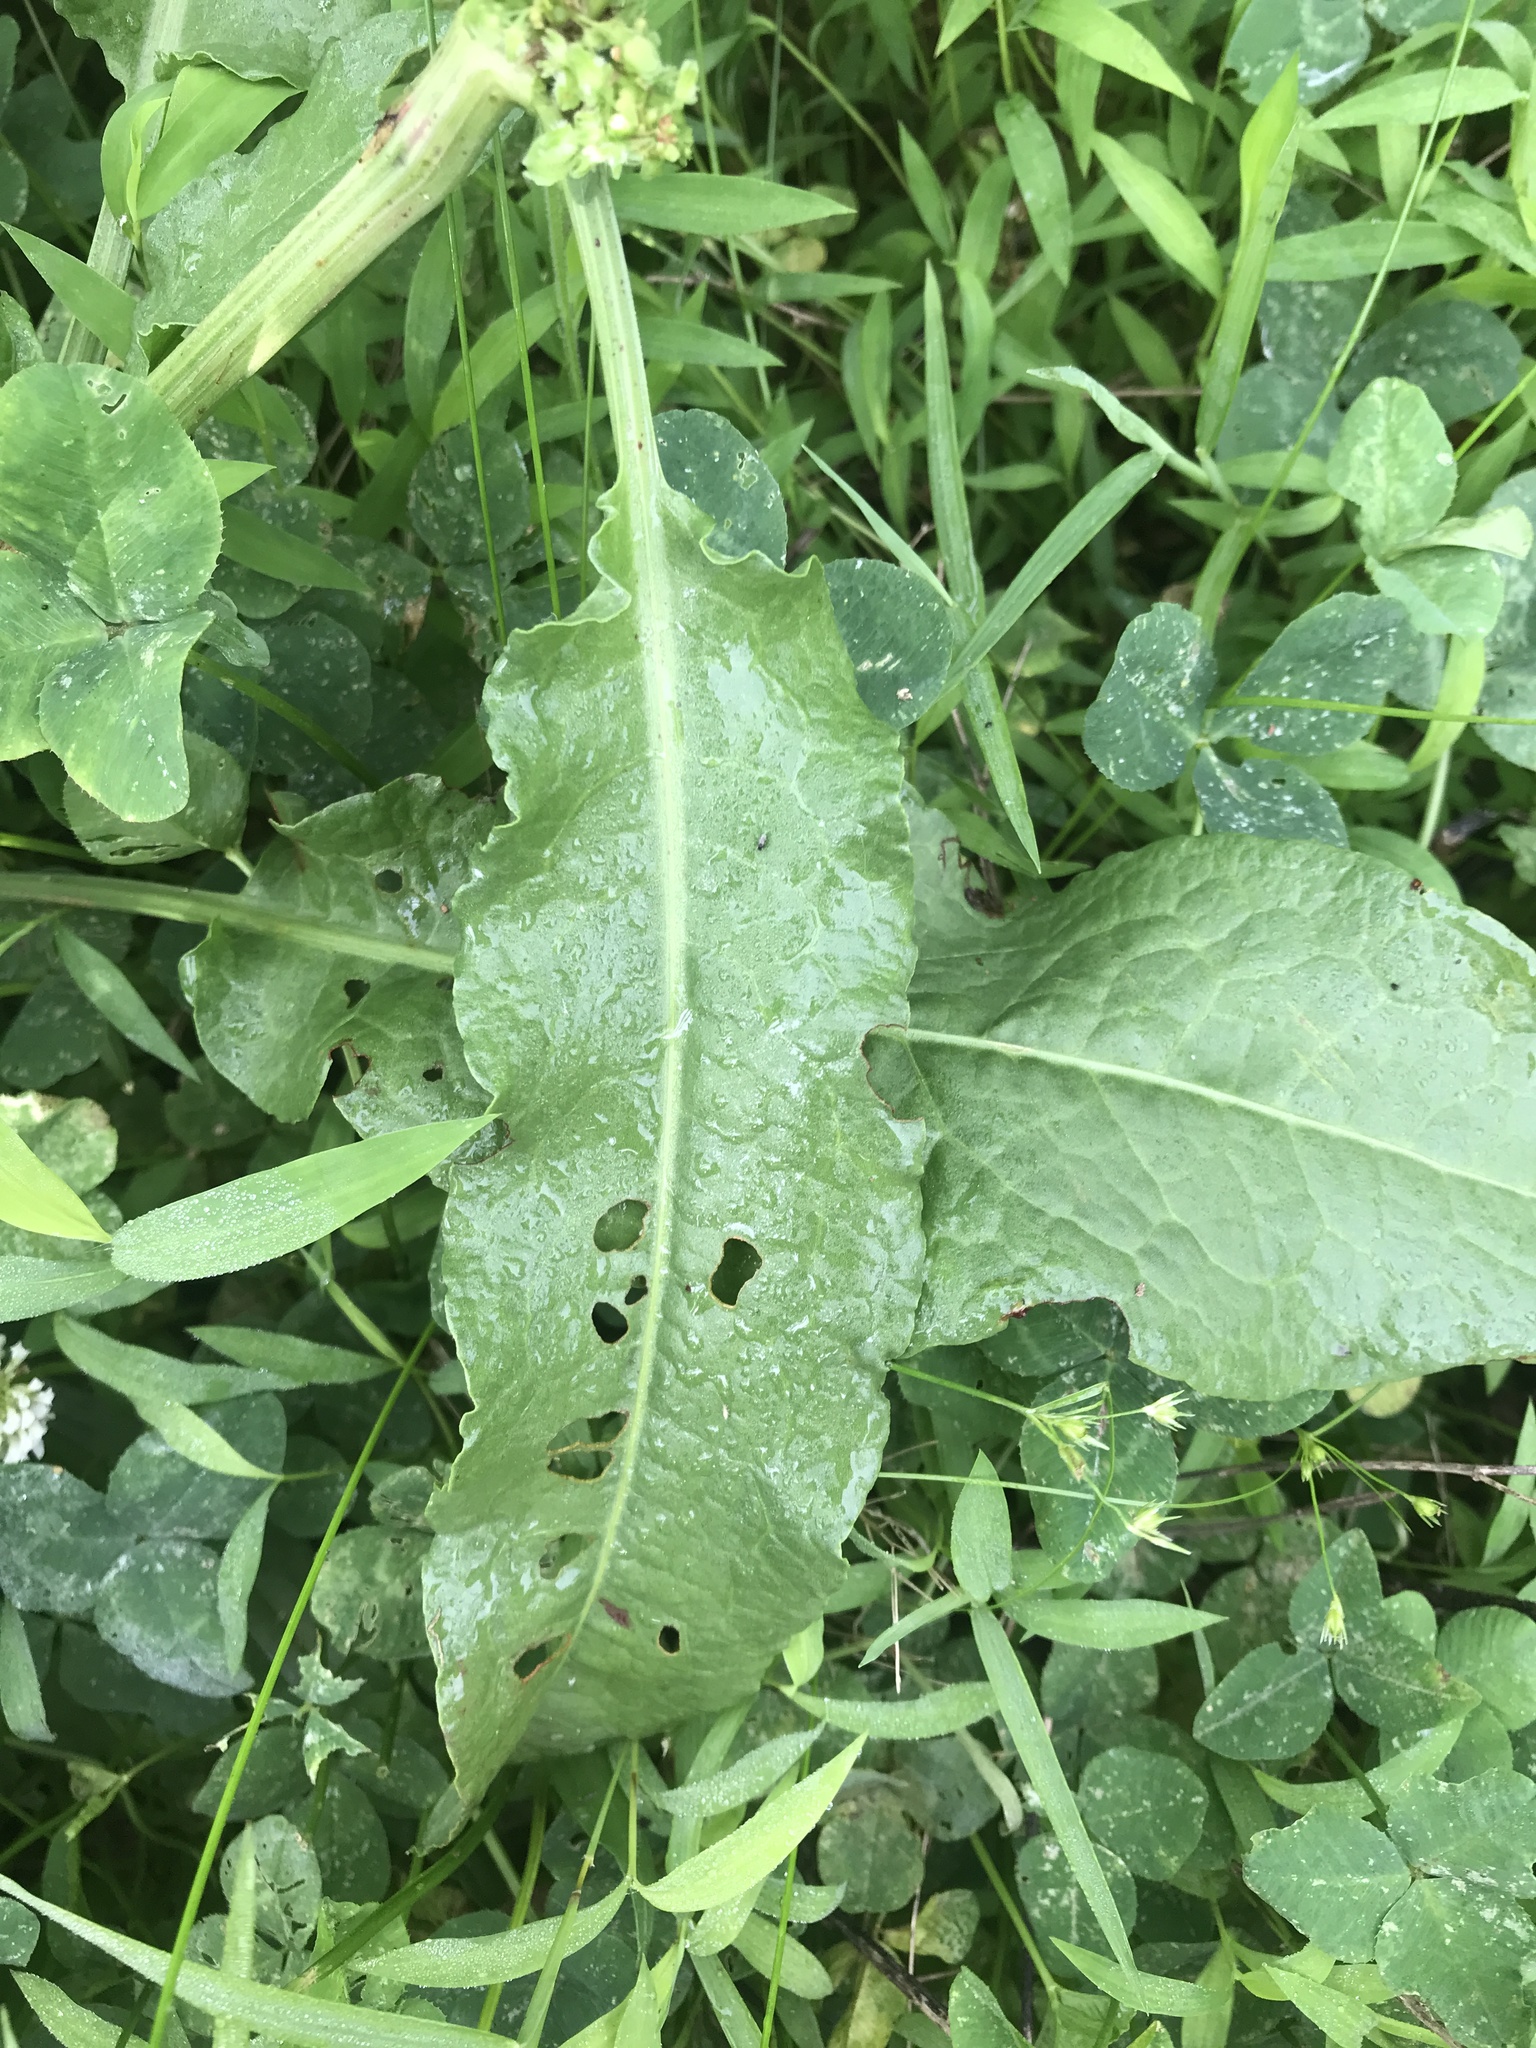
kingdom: Plantae
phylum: Tracheophyta
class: Magnoliopsida
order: Caryophyllales
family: Polygonaceae
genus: Rumex
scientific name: Rumex crispus
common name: Curled dock
